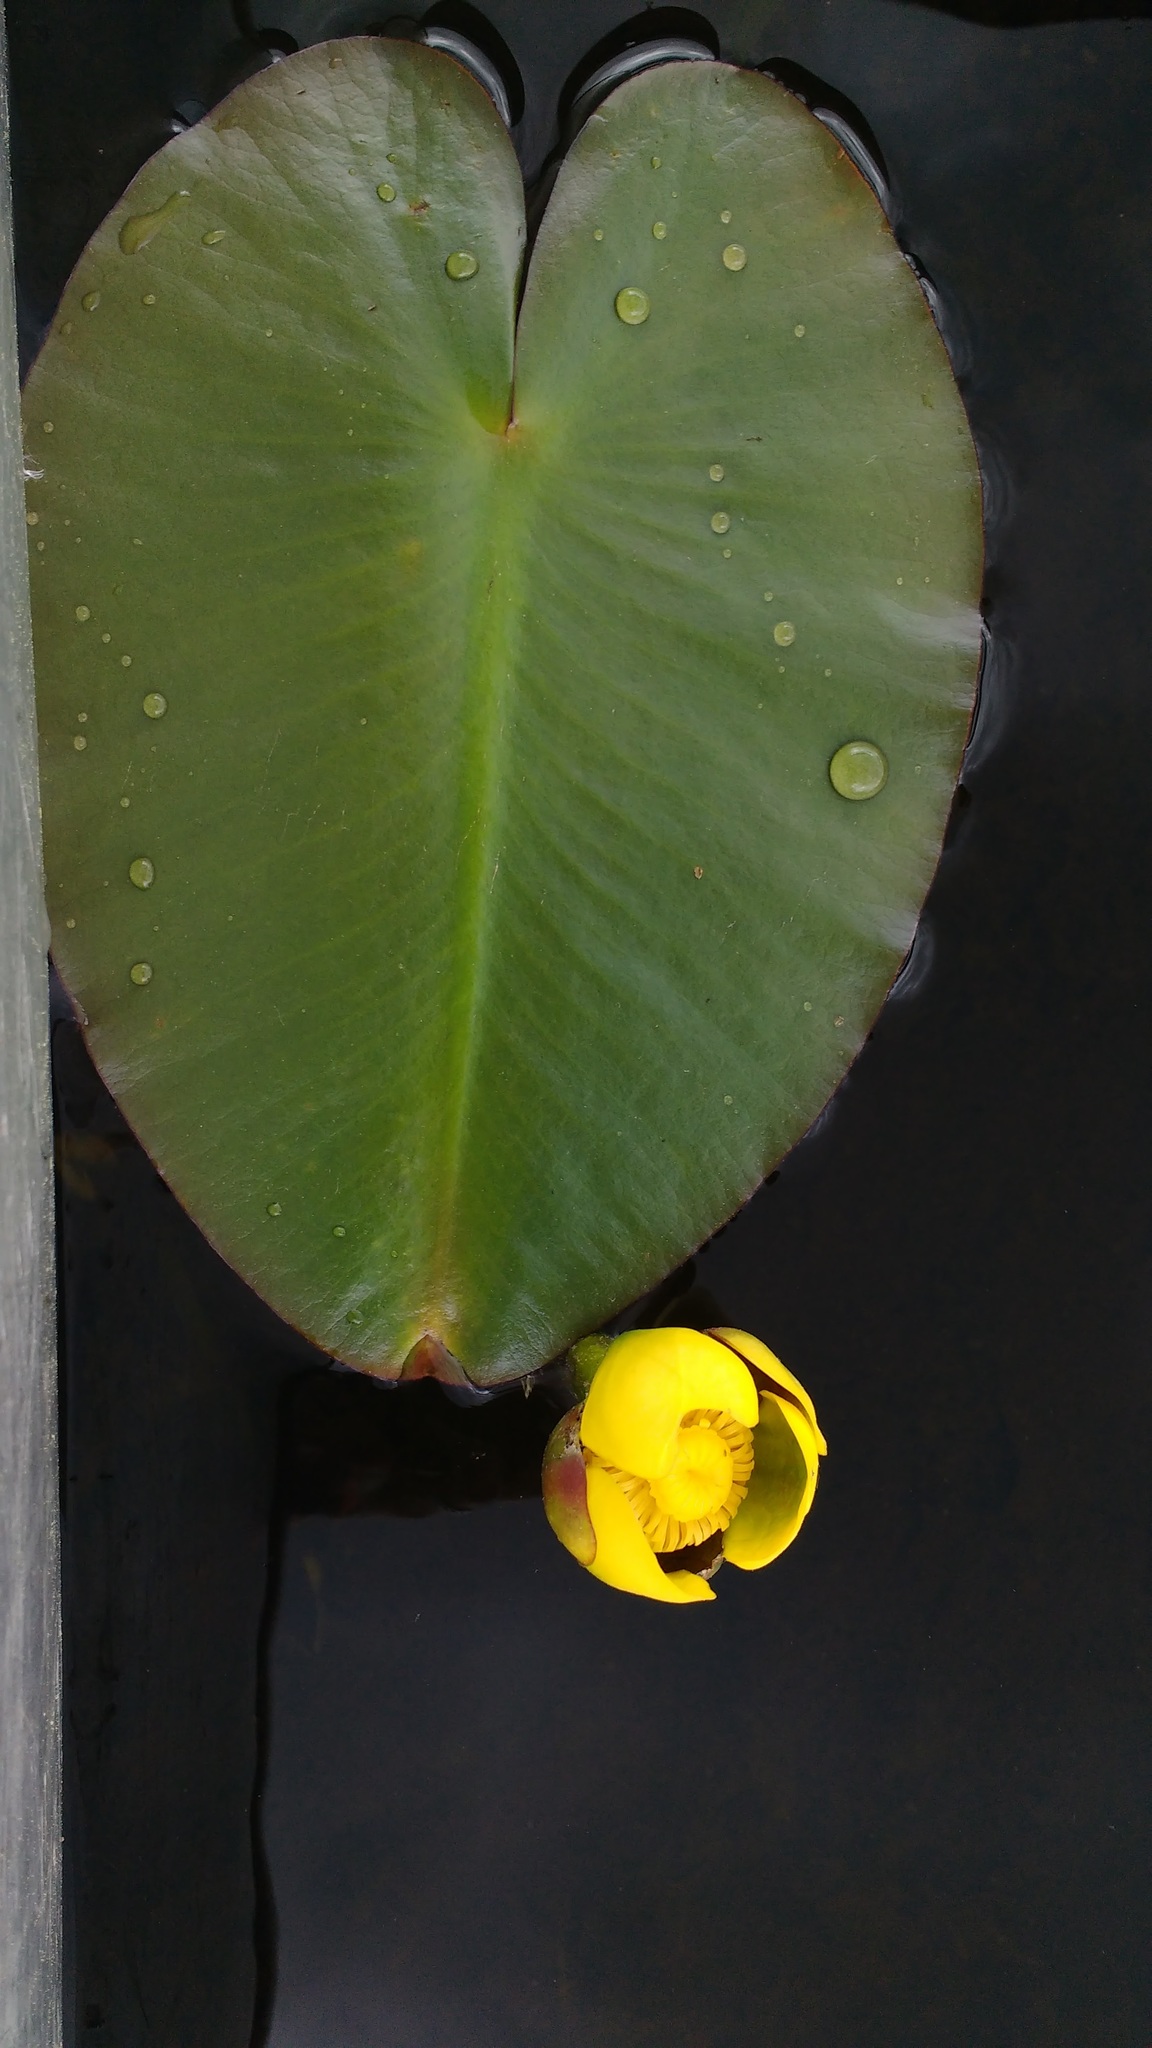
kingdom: Plantae
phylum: Tracheophyta
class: Magnoliopsida
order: Nymphaeales
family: Nymphaeaceae
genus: Nuphar
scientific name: Nuphar variegata
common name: Beaver-root
